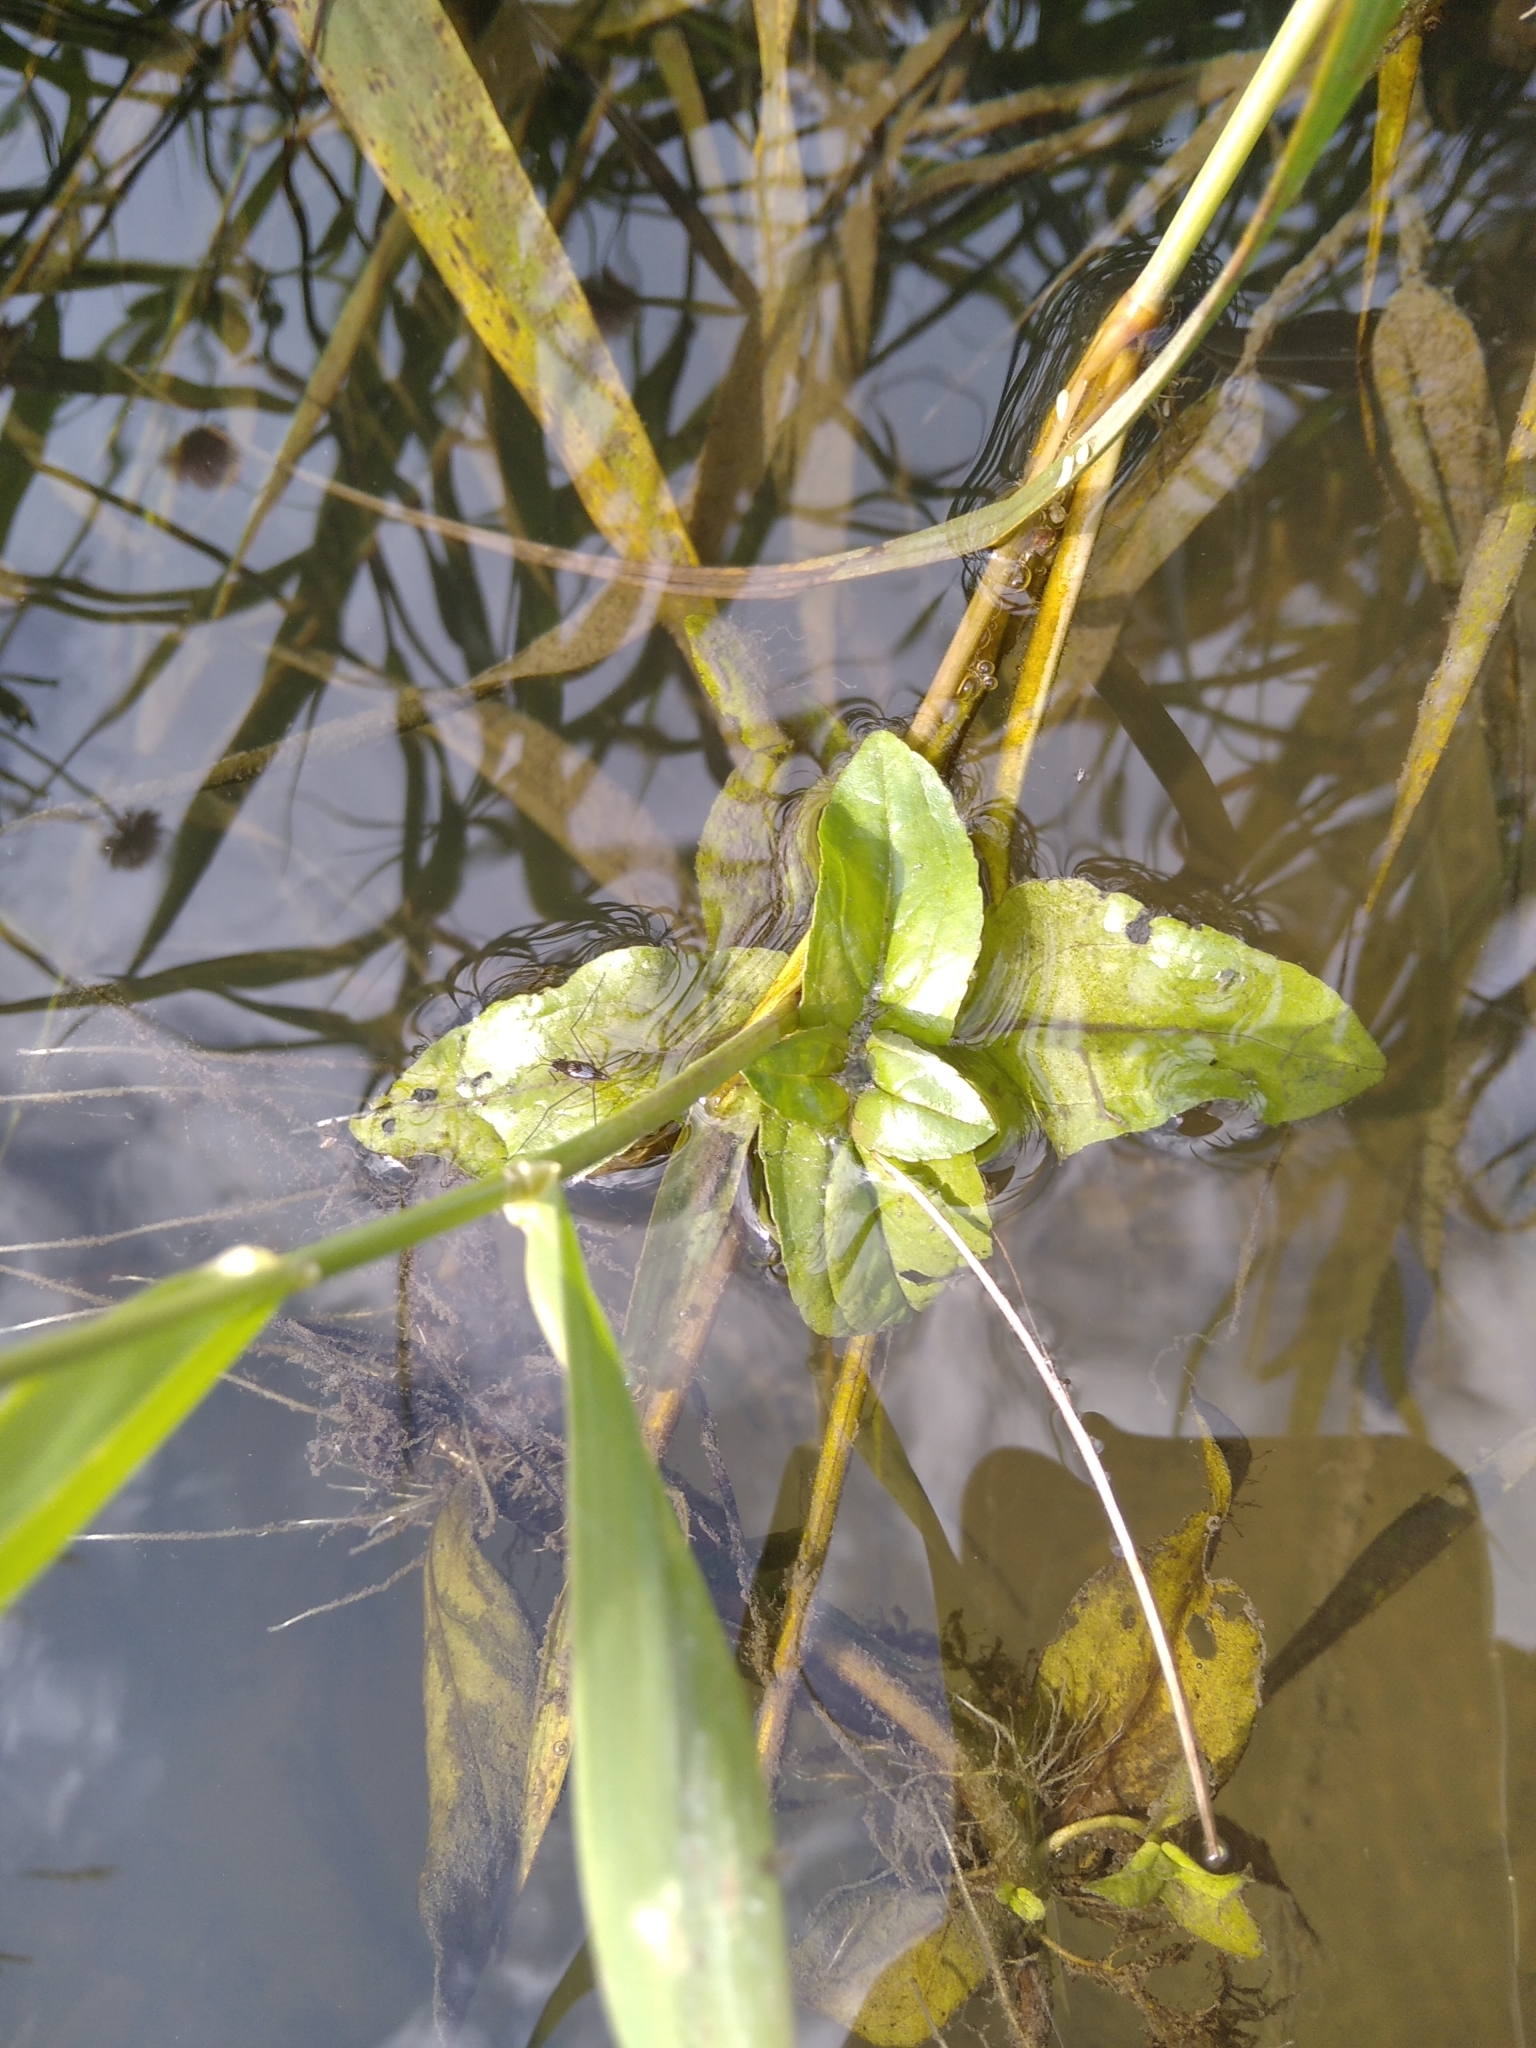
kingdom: Plantae
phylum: Tracheophyta
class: Magnoliopsida
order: Lamiales
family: Plantaginaceae
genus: Veronica
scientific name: Veronica anagallis-aquatica
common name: Water speedwell
